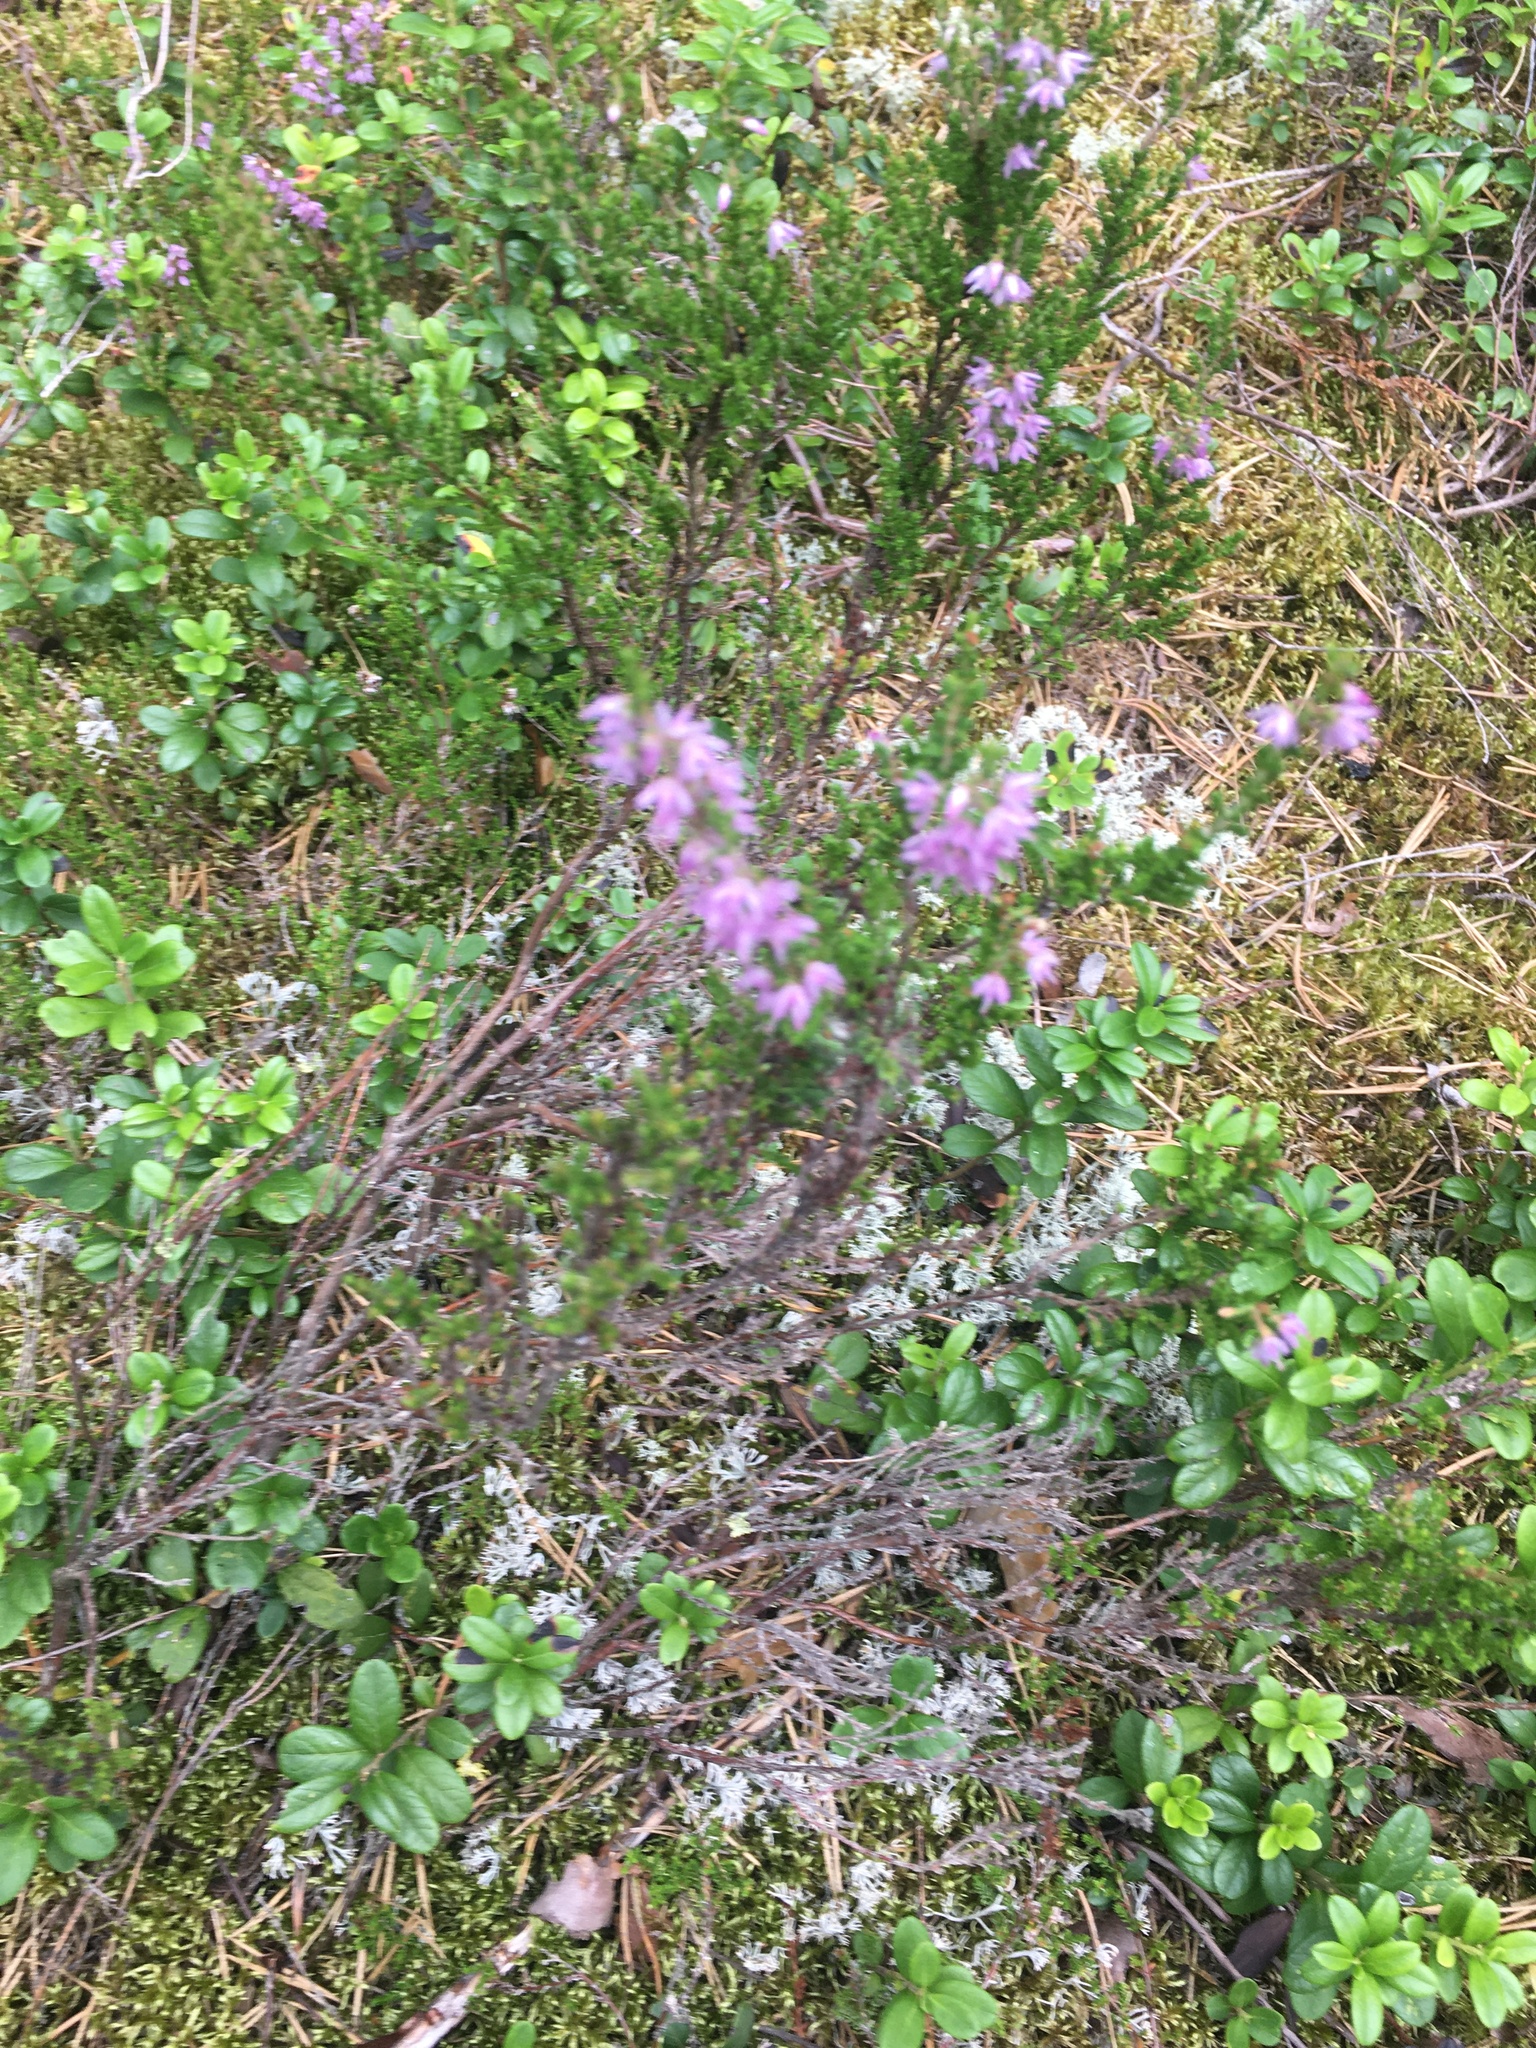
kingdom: Plantae
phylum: Tracheophyta
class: Magnoliopsida
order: Ericales
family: Ericaceae
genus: Calluna
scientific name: Calluna vulgaris
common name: Heather
